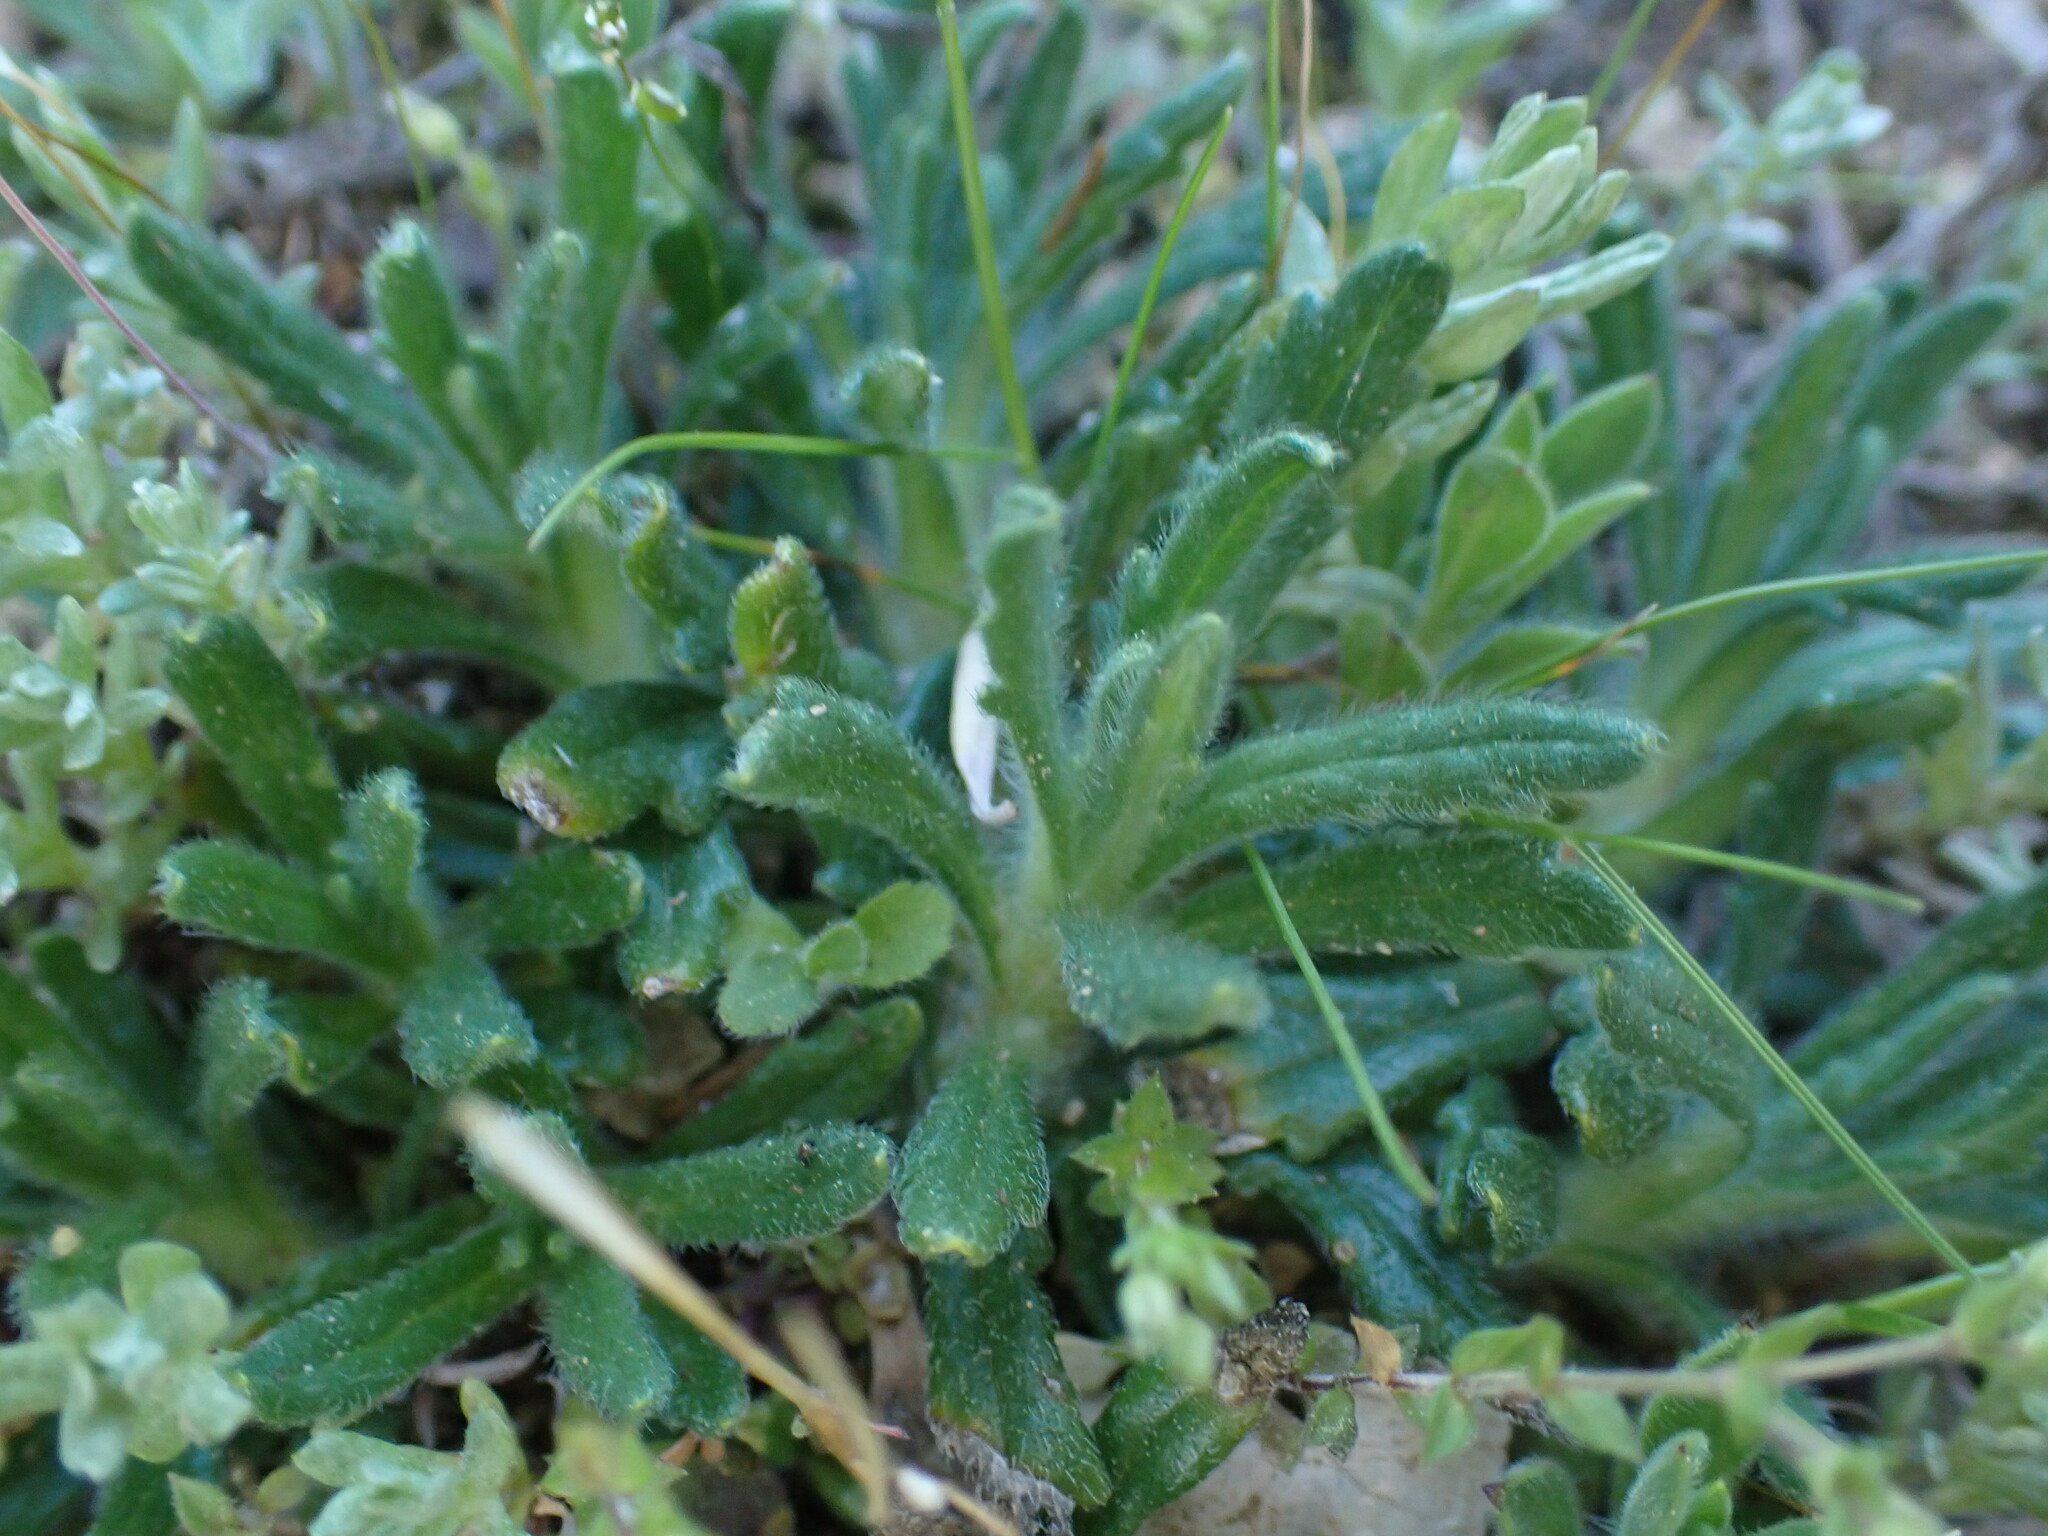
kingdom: Plantae
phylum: Tracheophyta
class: Magnoliopsida
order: Lamiales
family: Lamiaceae
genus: Ajuga
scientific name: Ajuga iva
